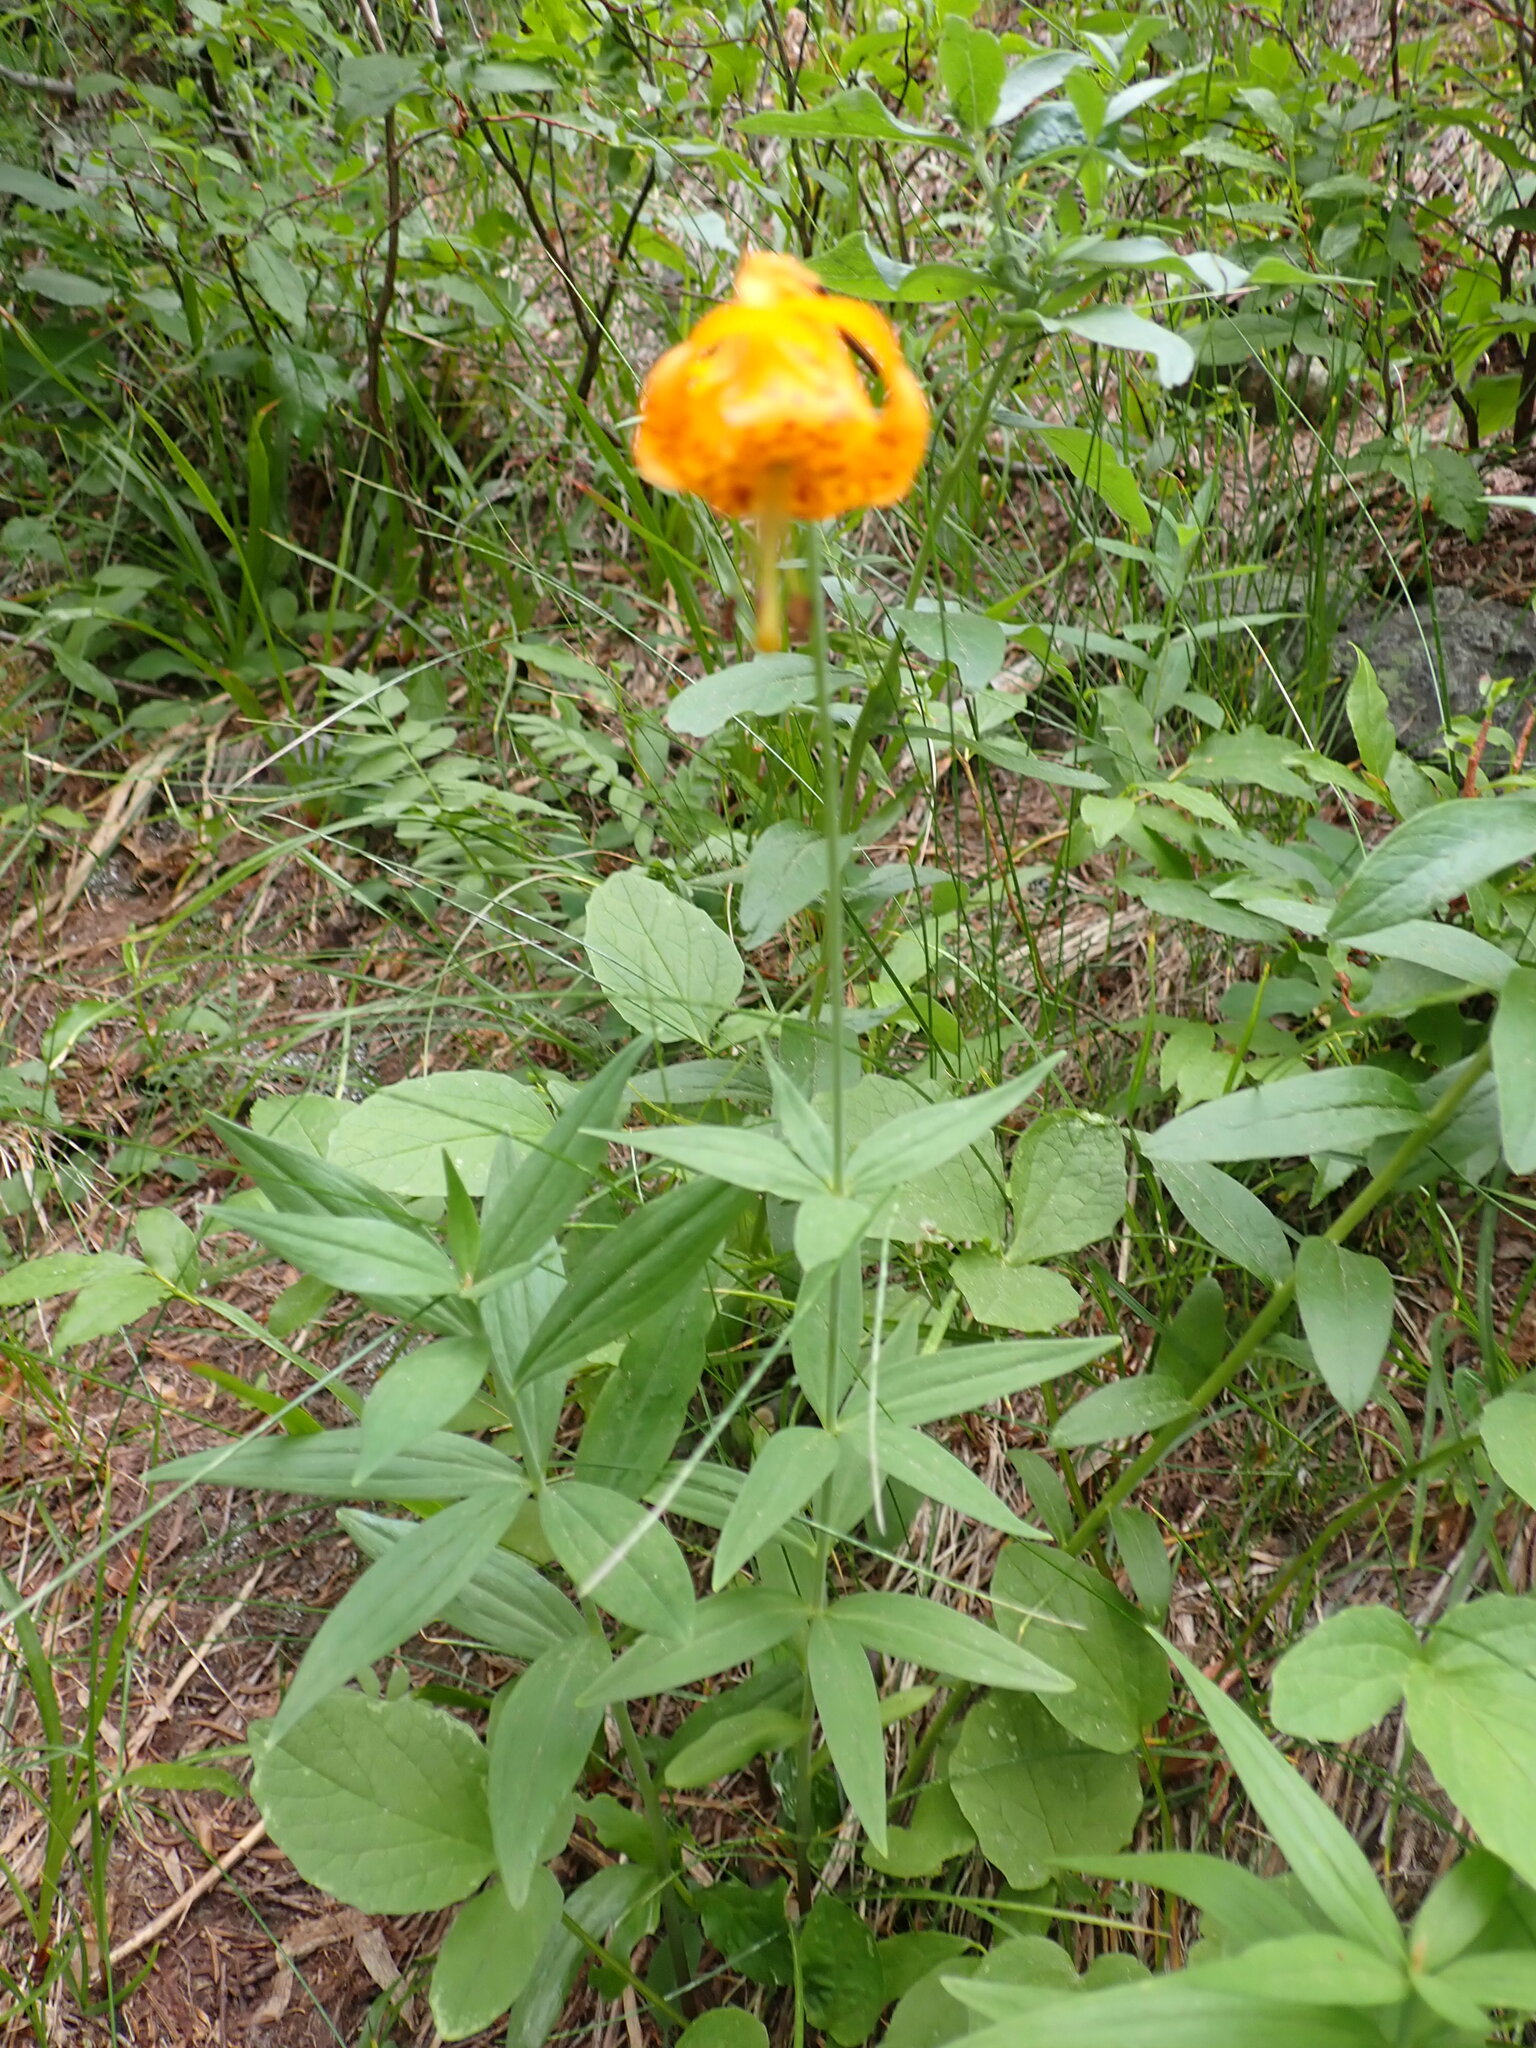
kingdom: Plantae
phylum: Tracheophyta
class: Liliopsida
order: Liliales
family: Liliaceae
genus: Lilium
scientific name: Lilium columbianum
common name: Columbia lily
